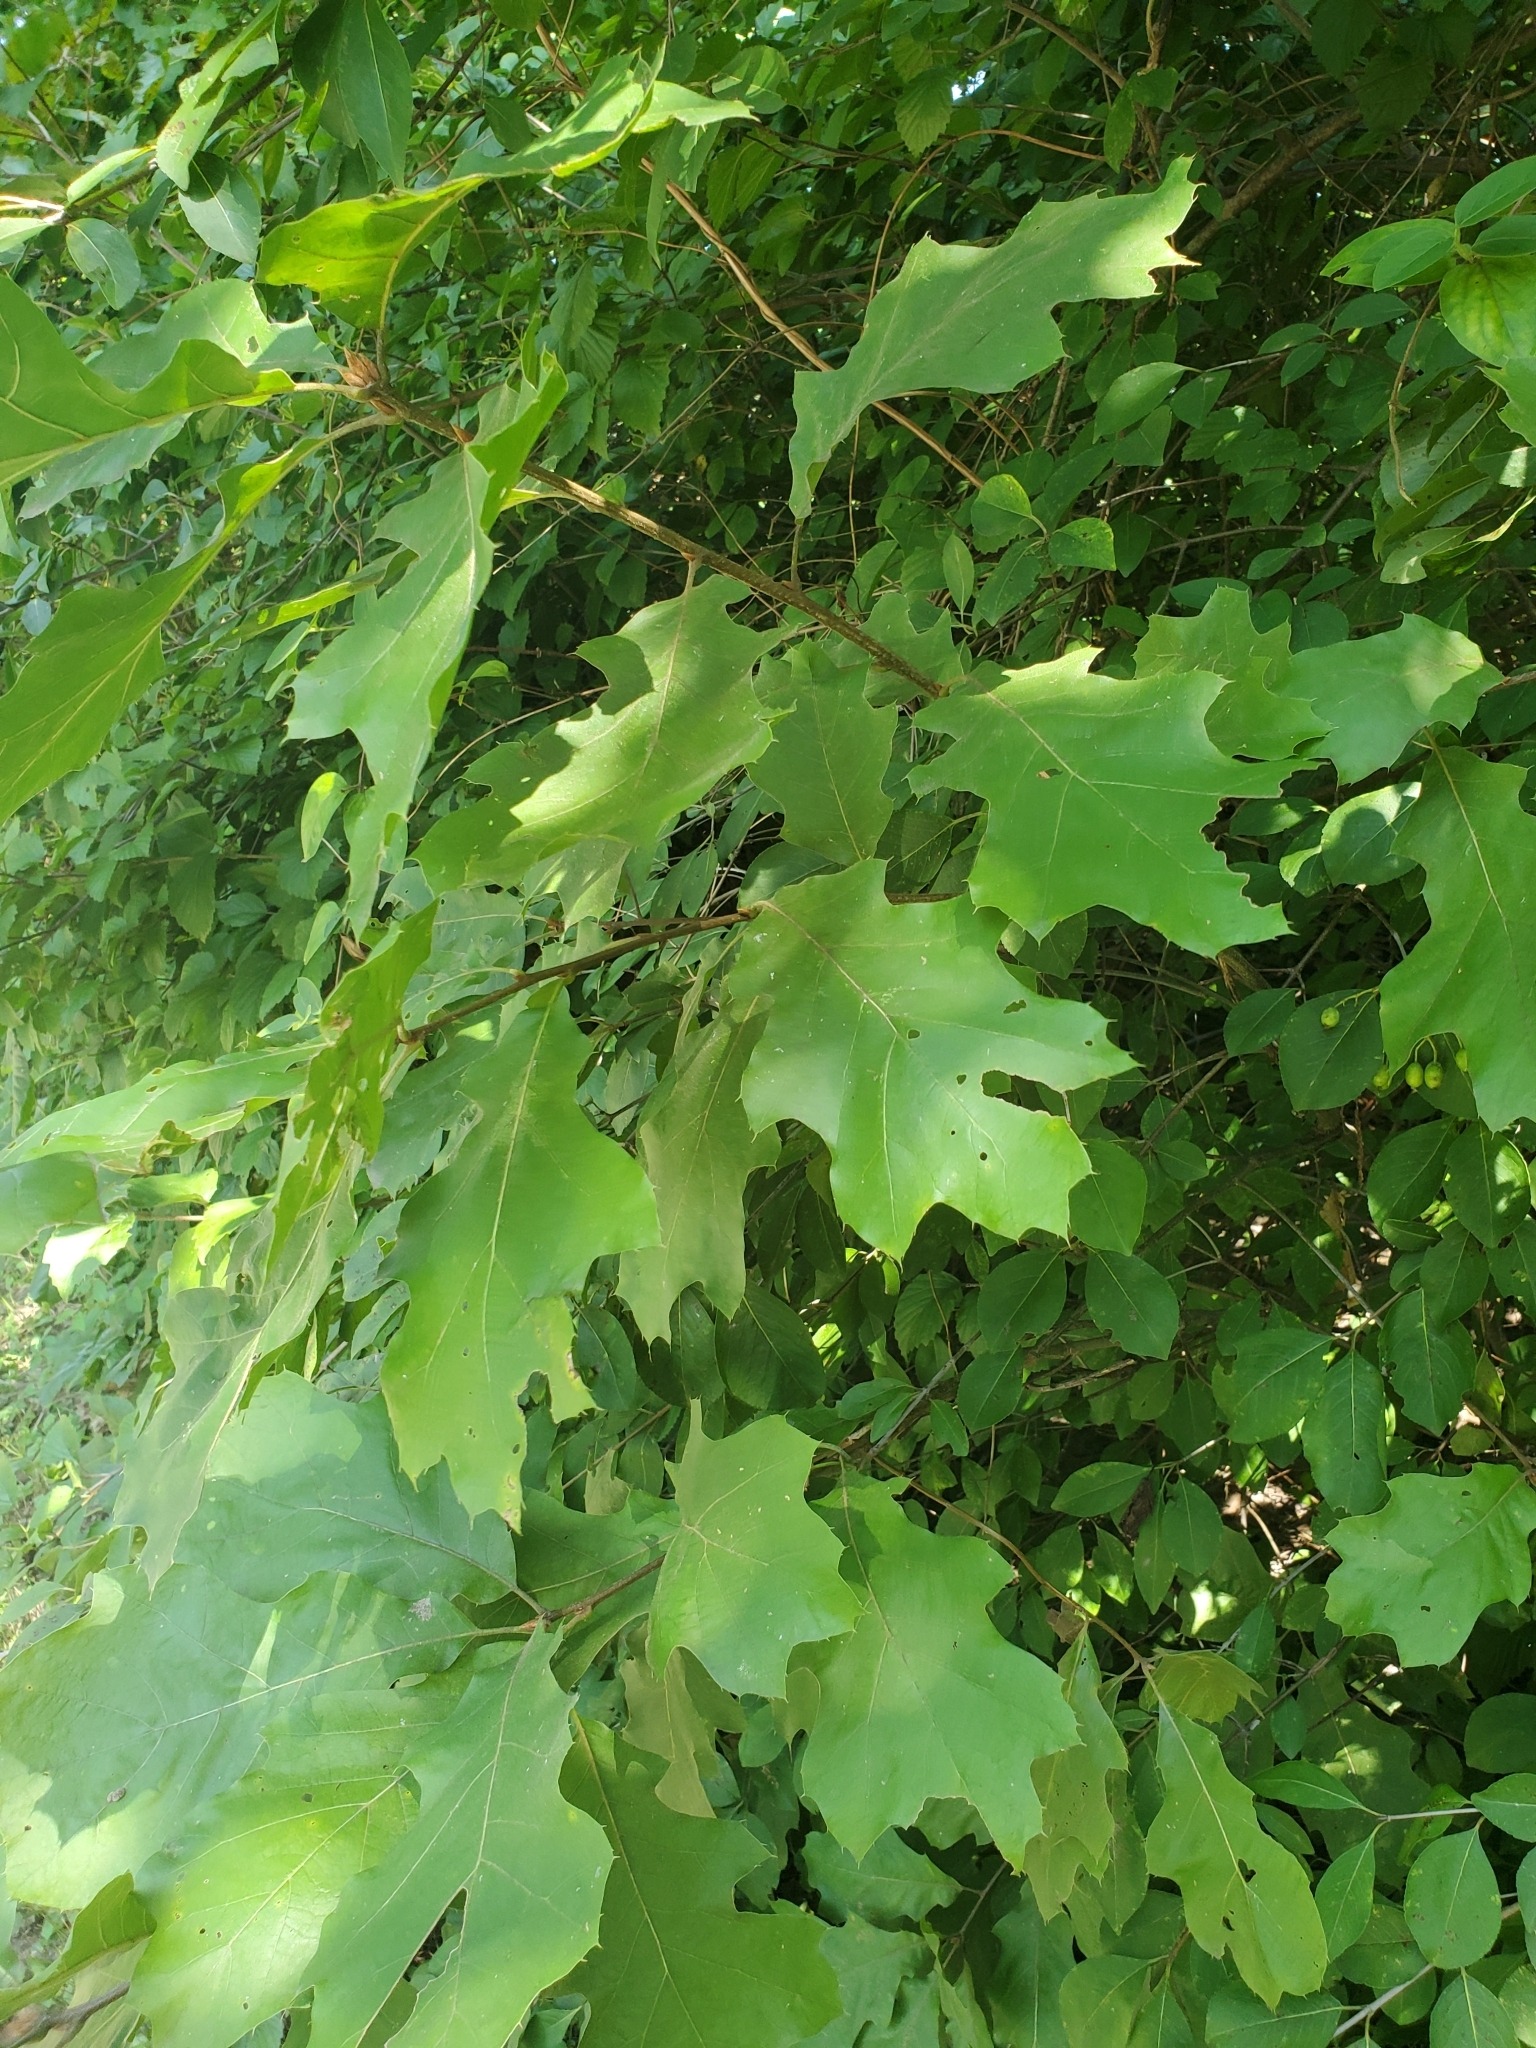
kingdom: Plantae
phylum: Tracheophyta
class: Magnoliopsida
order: Fagales
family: Fagaceae
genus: Quercus
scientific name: Quercus velutina
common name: Black oak
